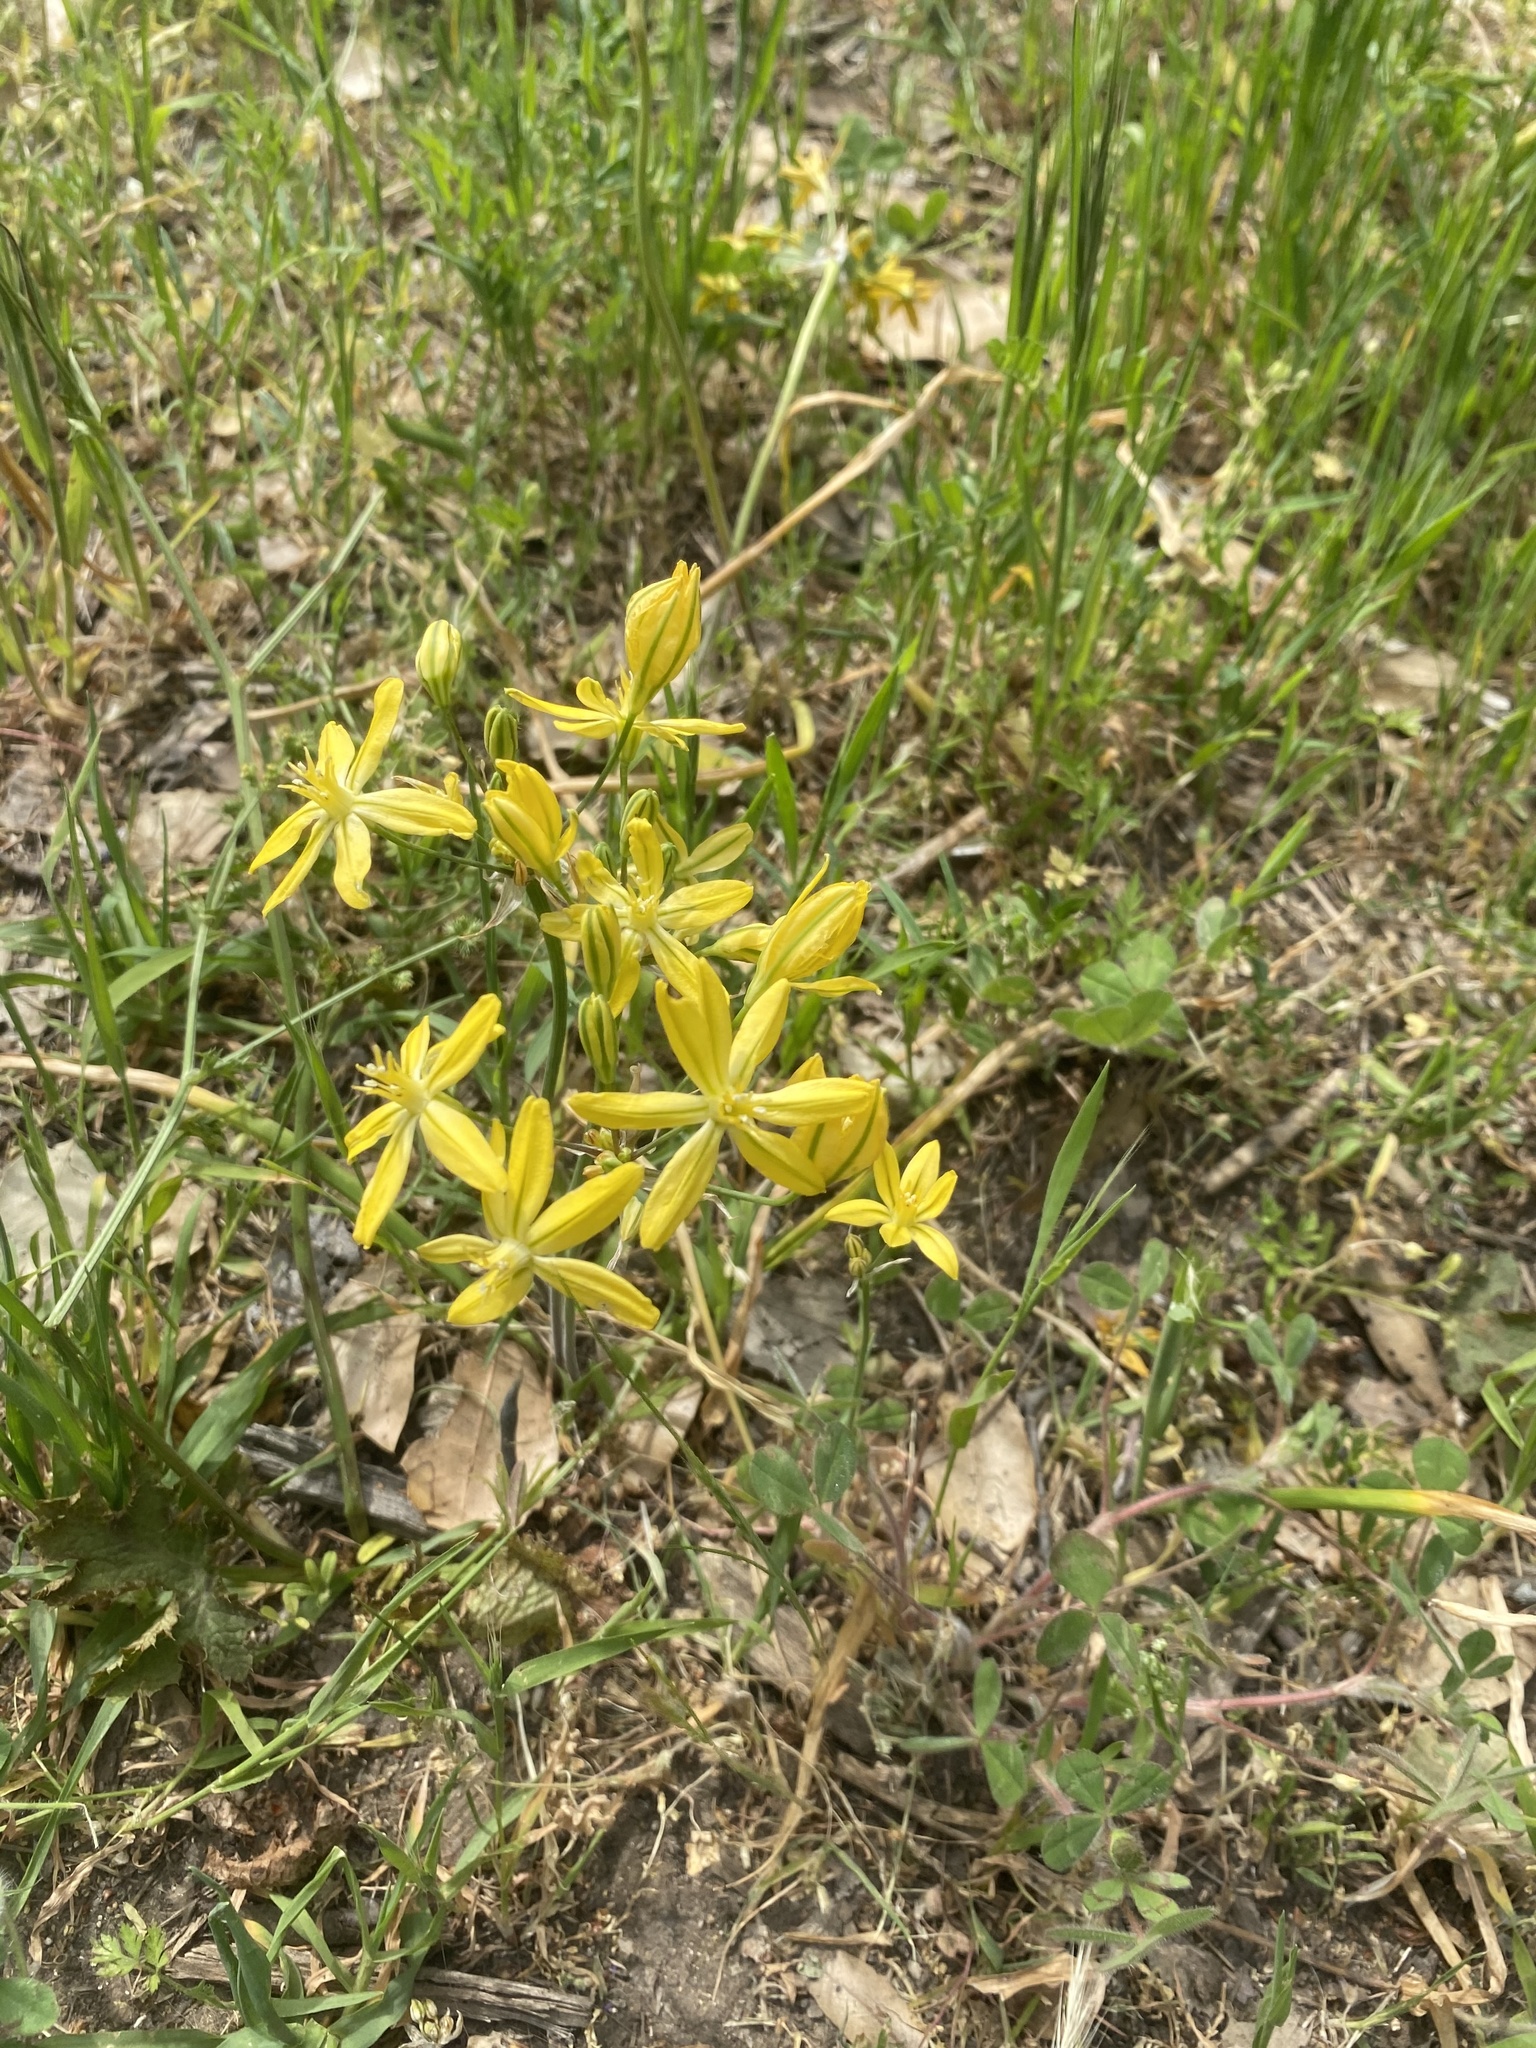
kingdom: Plantae
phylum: Tracheophyta
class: Liliopsida
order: Asparagales
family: Asparagaceae
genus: Triteleia
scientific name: Triteleia ixioides
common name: Yellow-brodiaea
